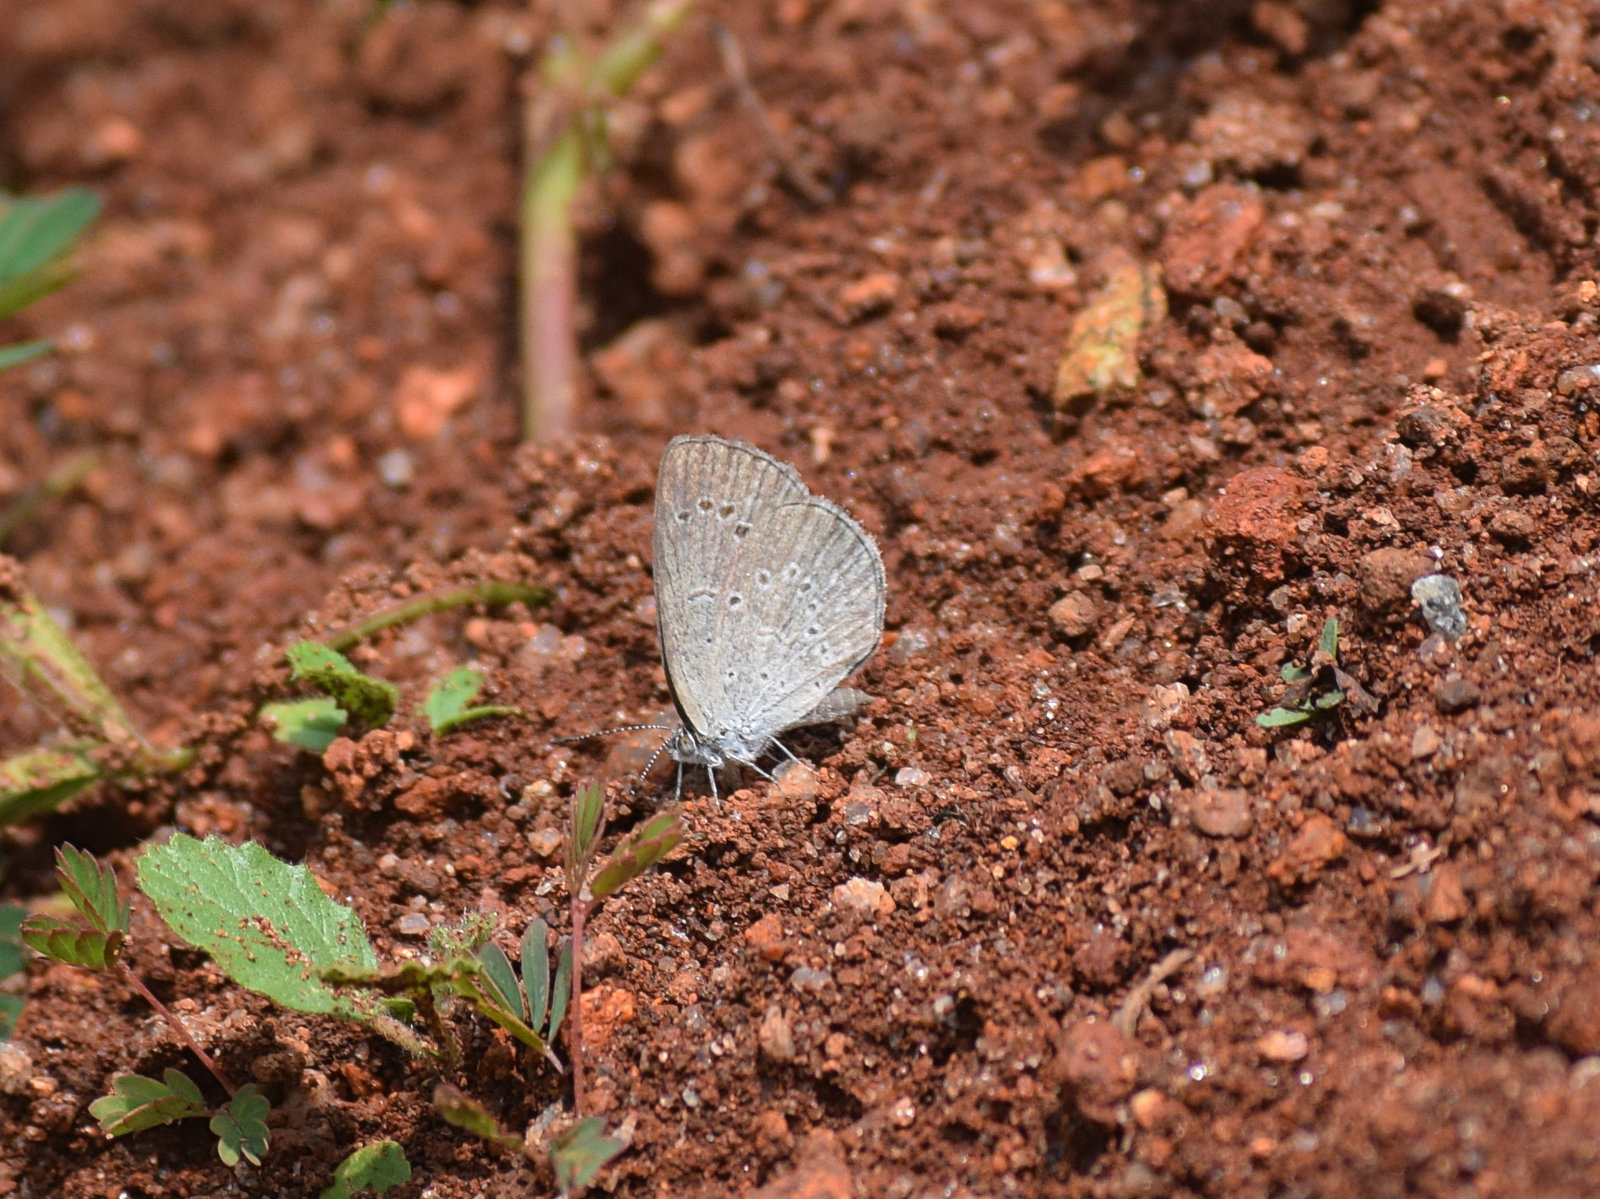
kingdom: Animalia
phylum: Arthropoda
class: Insecta
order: Lepidoptera
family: Lycaenidae
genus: Pseudozizeeria
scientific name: Pseudozizeeria maha
